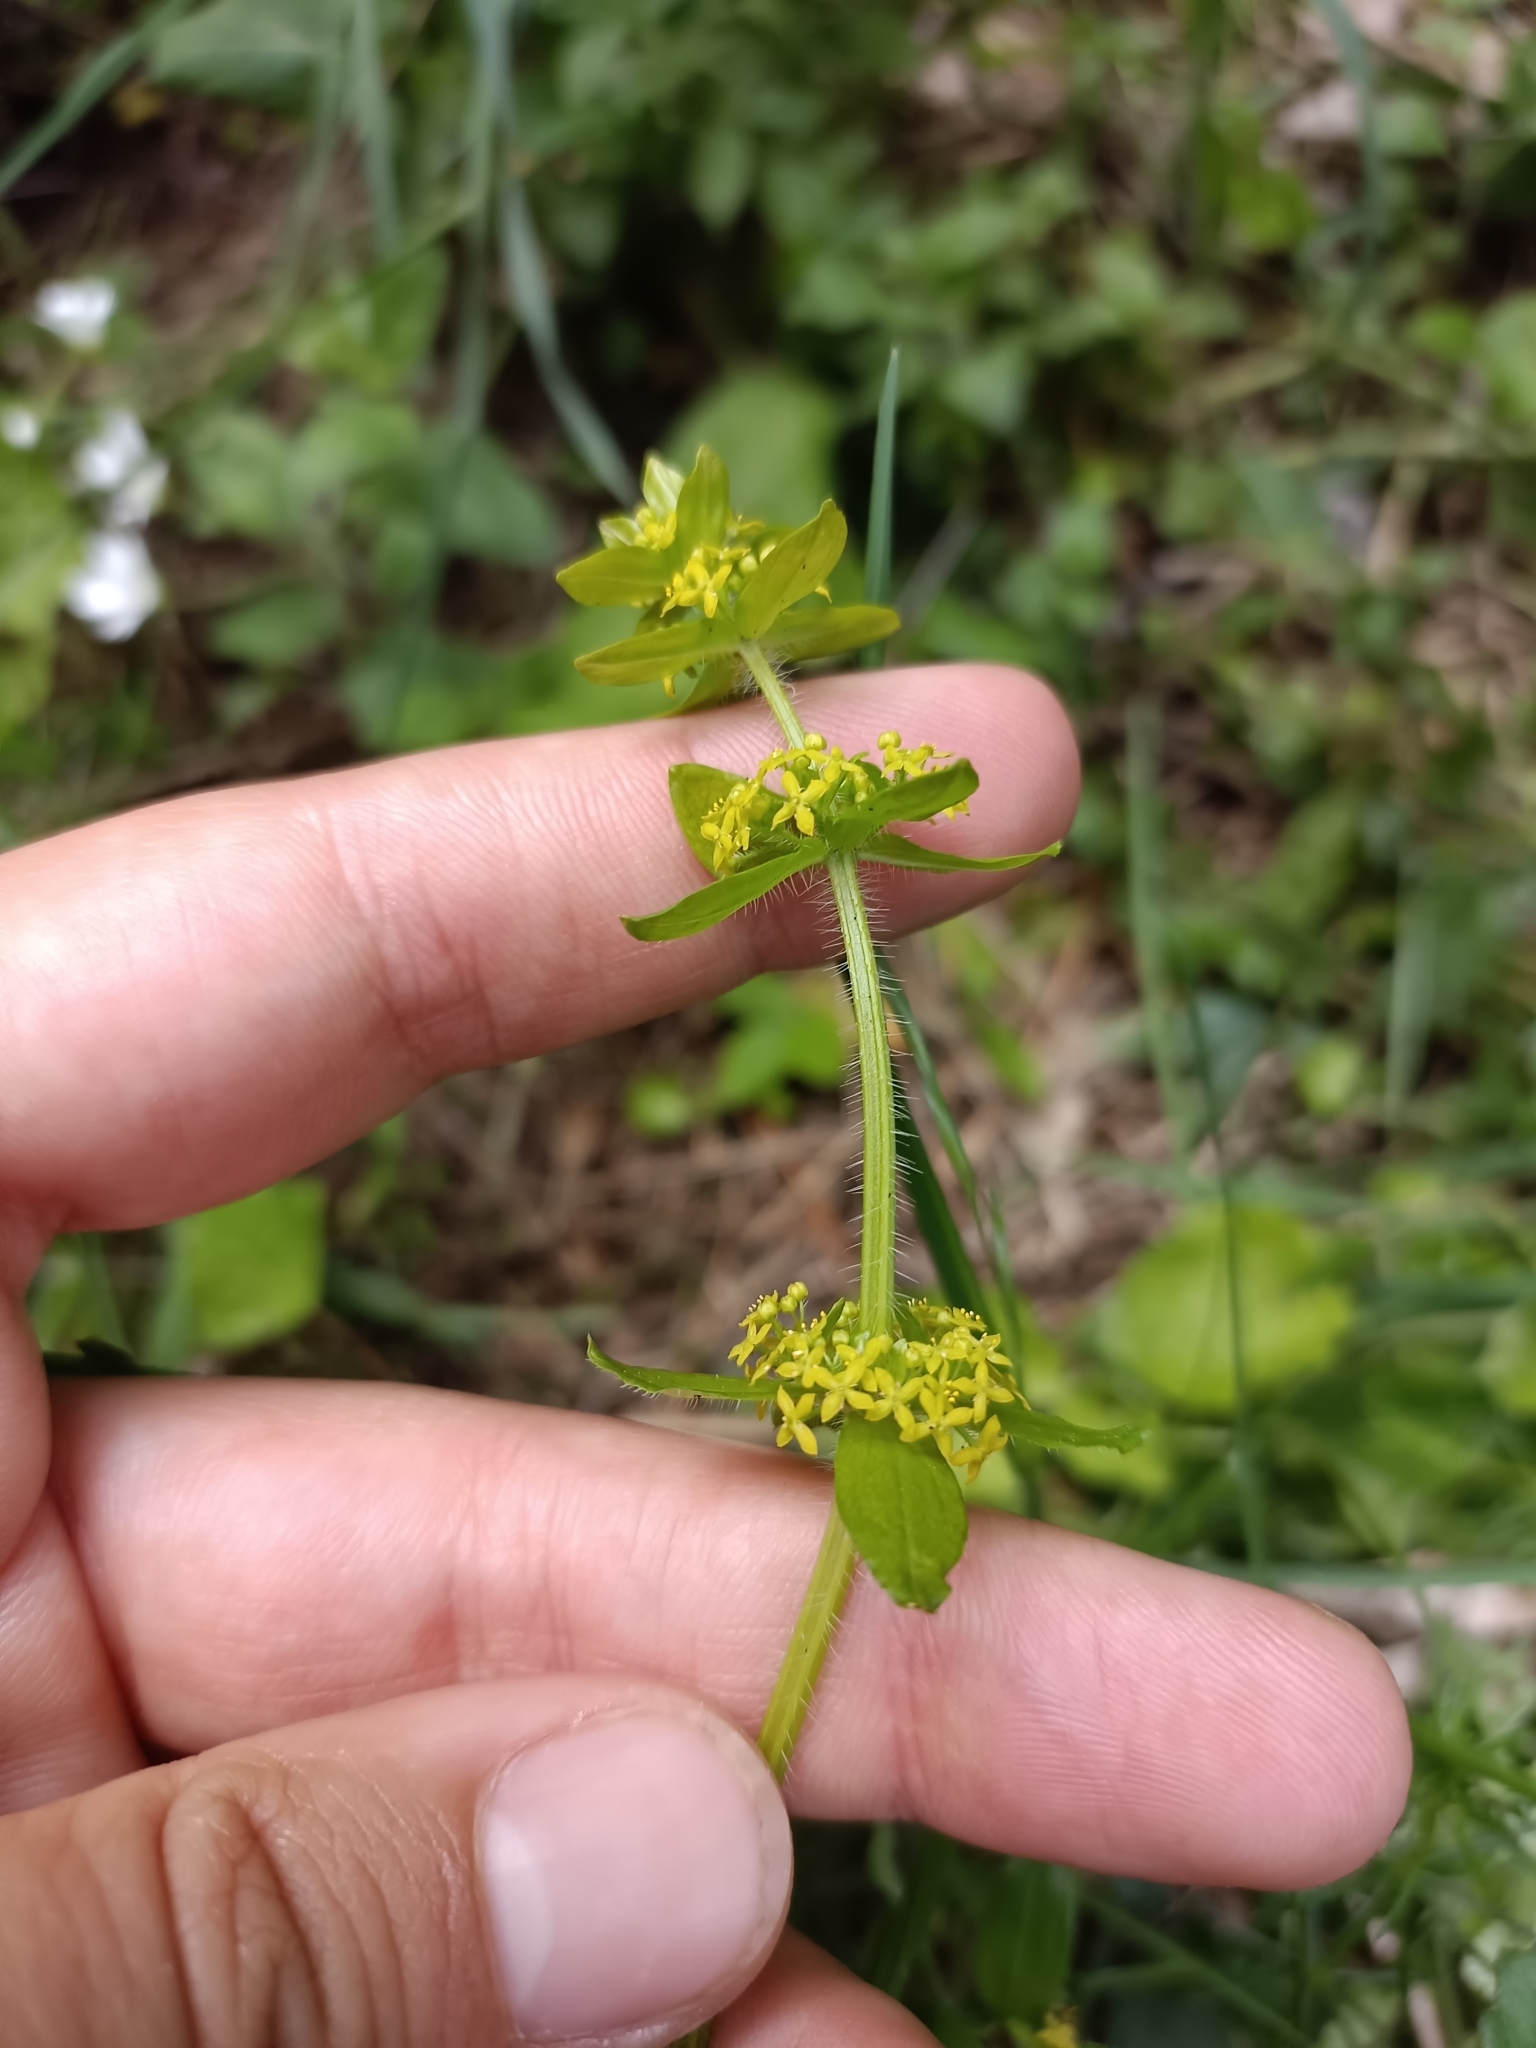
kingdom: Plantae
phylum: Tracheophyta
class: Magnoliopsida
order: Gentianales
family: Rubiaceae
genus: Cruciata
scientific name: Cruciata laevipes
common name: Crosswort
